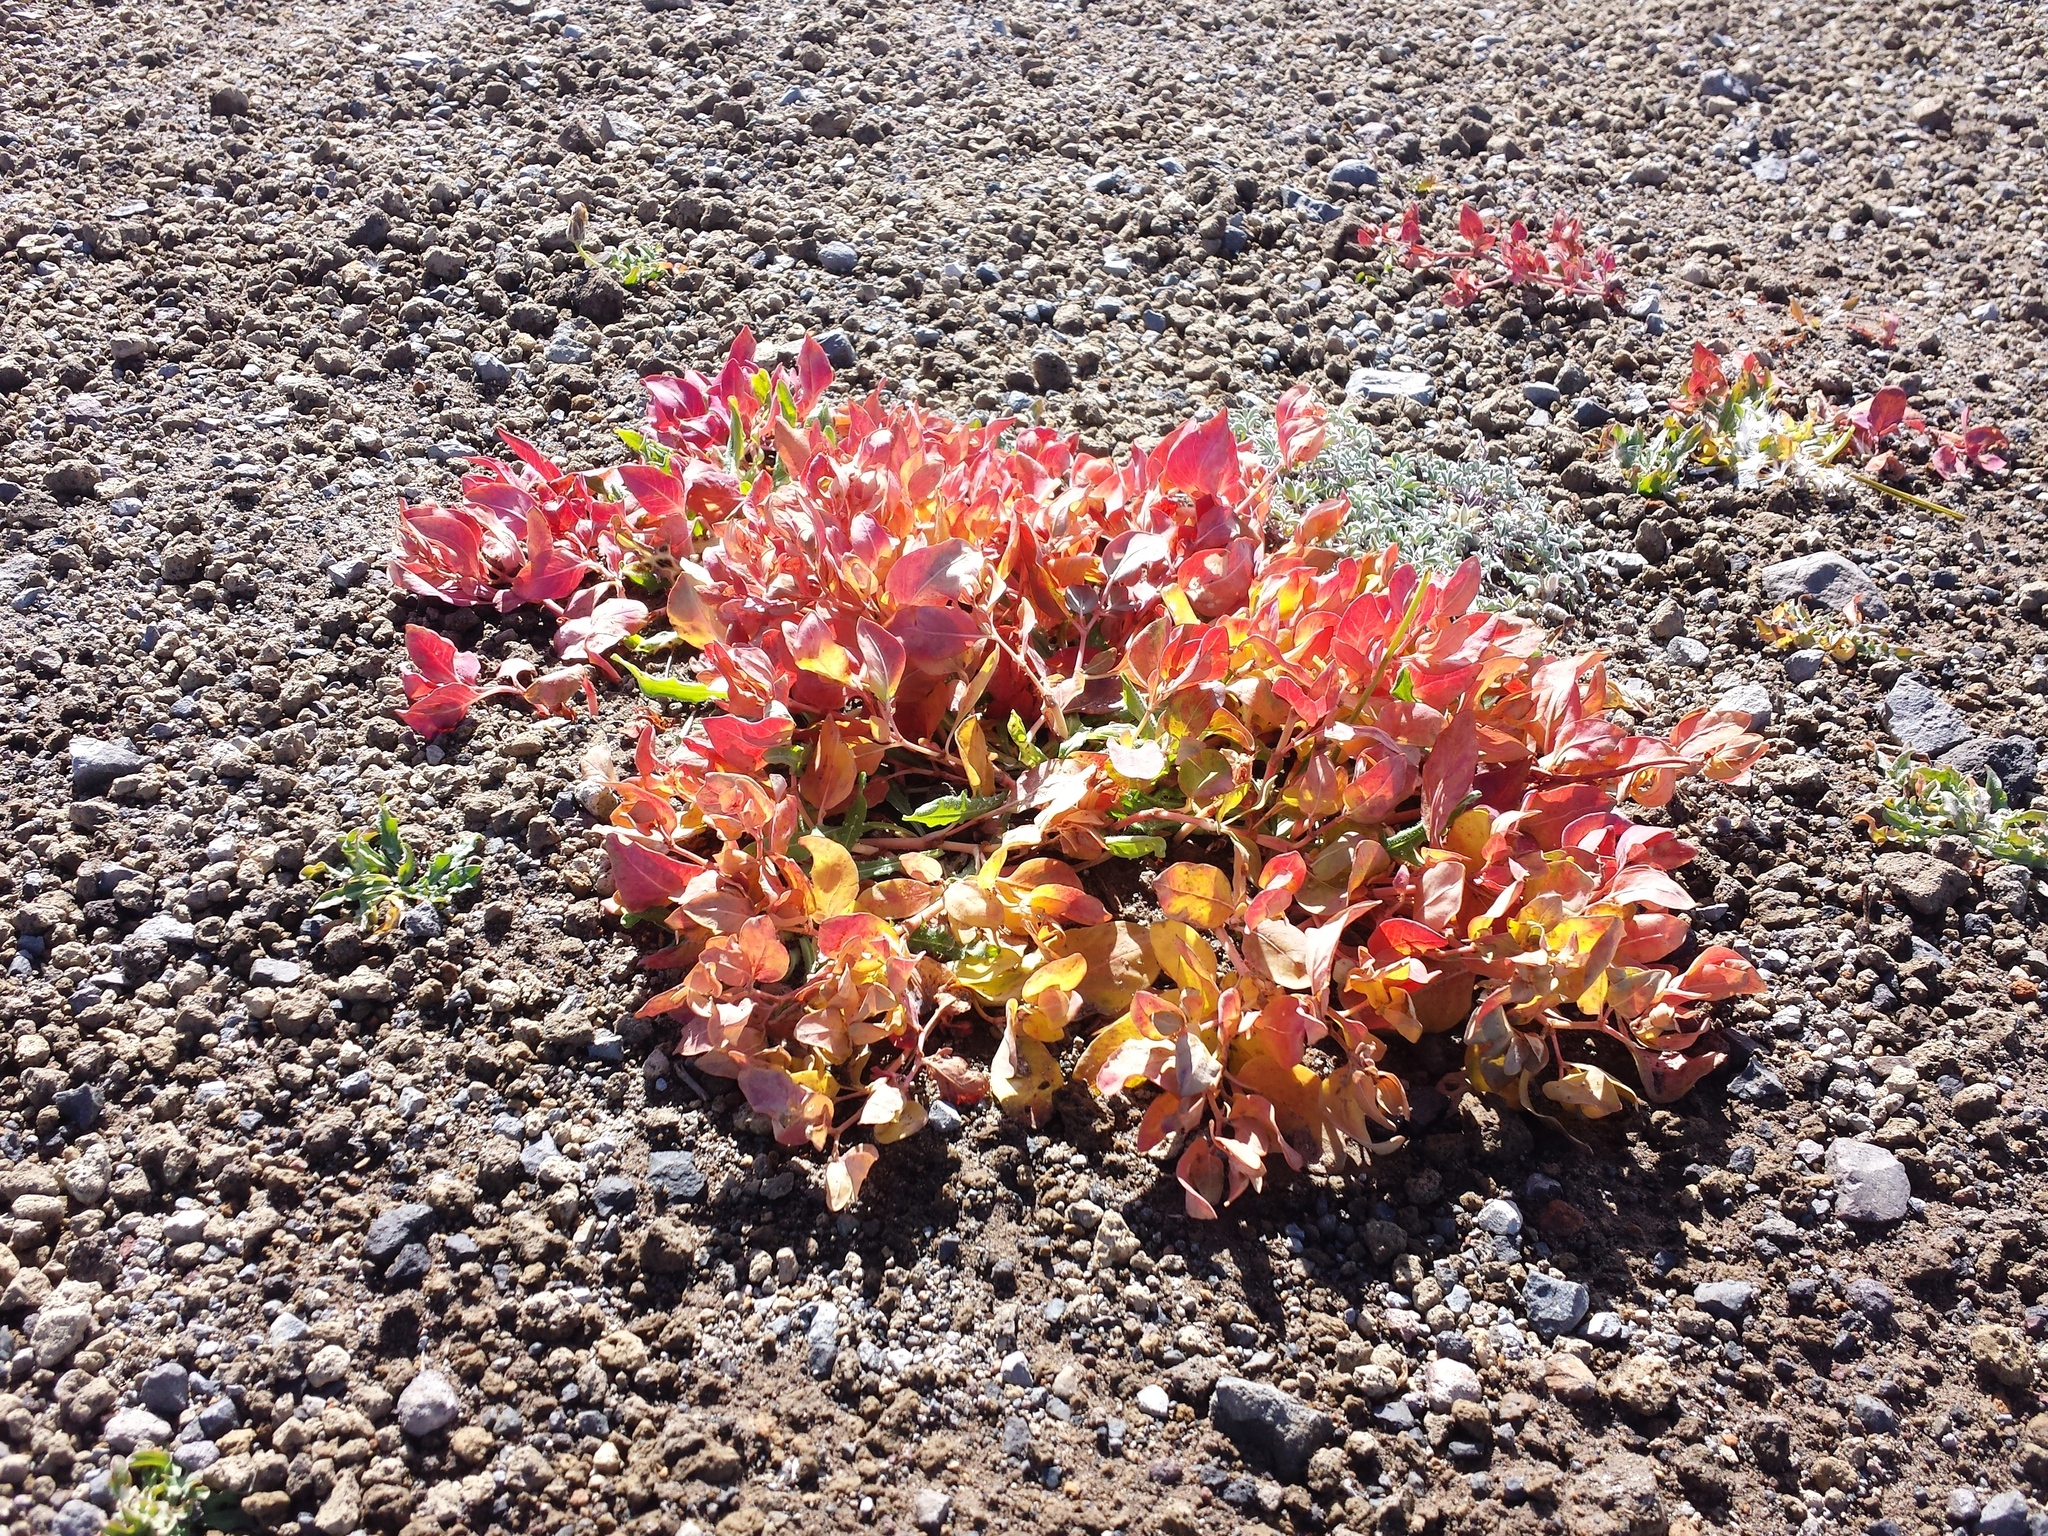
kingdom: Plantae
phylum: Tracheophyta
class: Magnoliopsida
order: Caryophyllales
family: Polygonaceae
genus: Koenigia
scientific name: Koenigia davisiae
